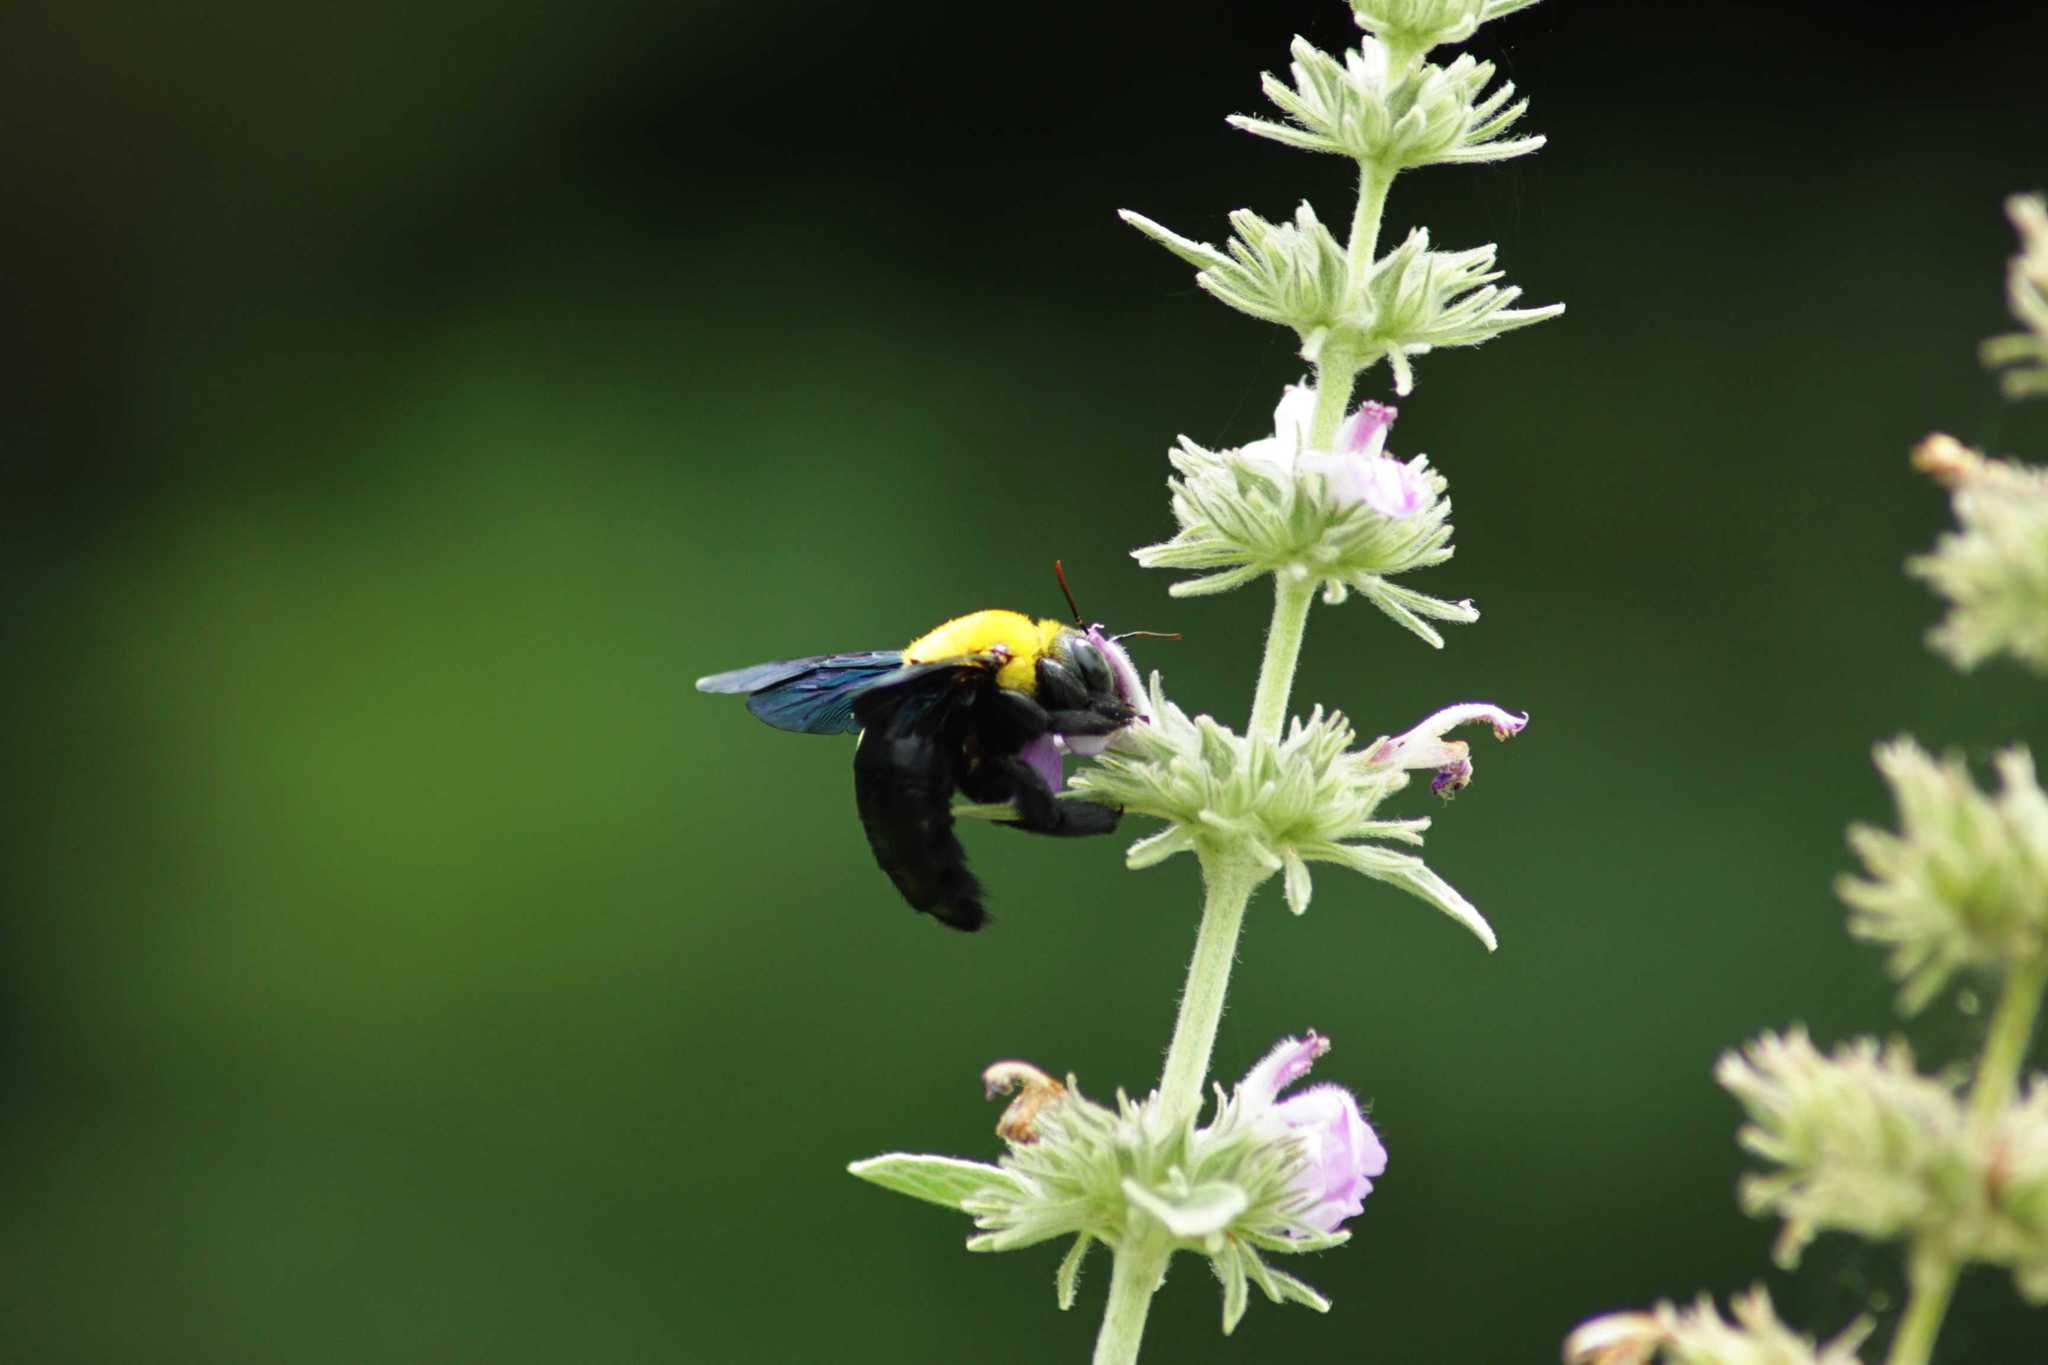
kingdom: Animalia
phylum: Arthropoda
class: Insecta
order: Hymenoptera
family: Apidae
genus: Xylocopa
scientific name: Xylocopa ruficornis
